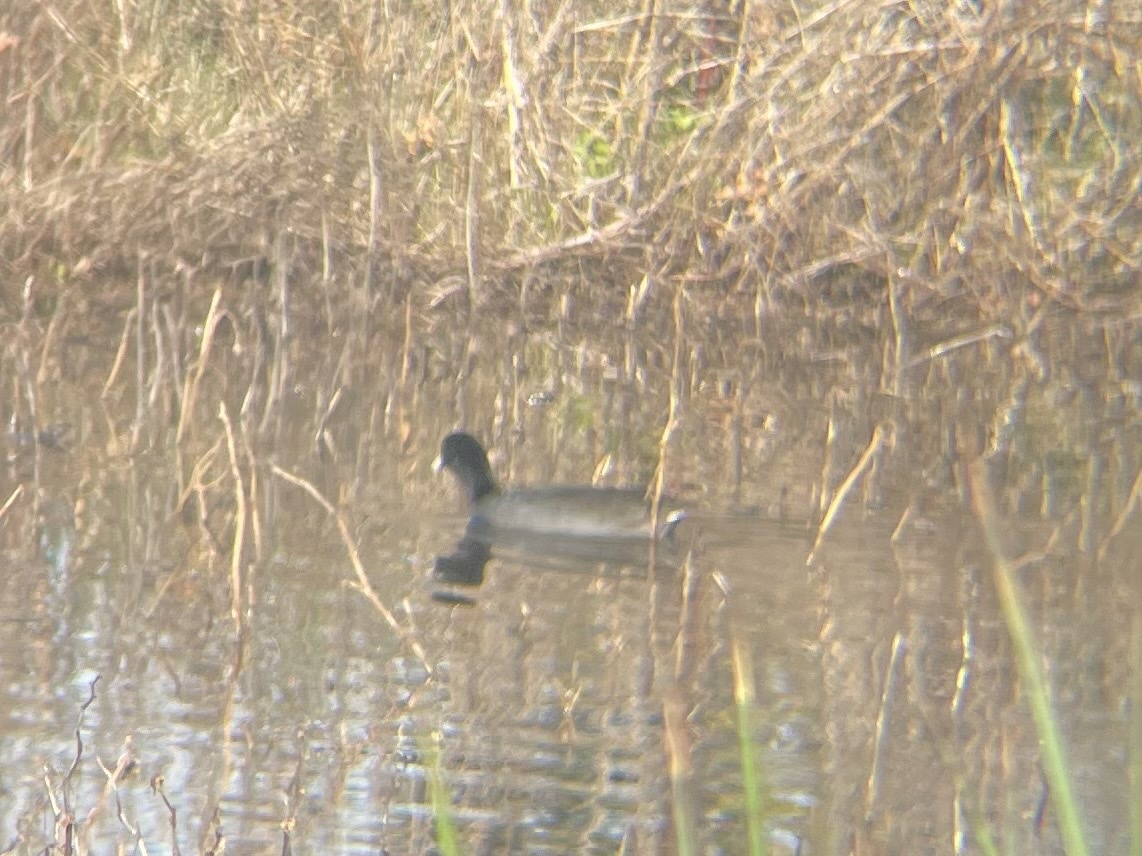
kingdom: Animalia
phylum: Chordata
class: Aves
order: Gruiformes
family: Rallidae
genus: Fulica
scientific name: Fulica americana
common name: American coot
